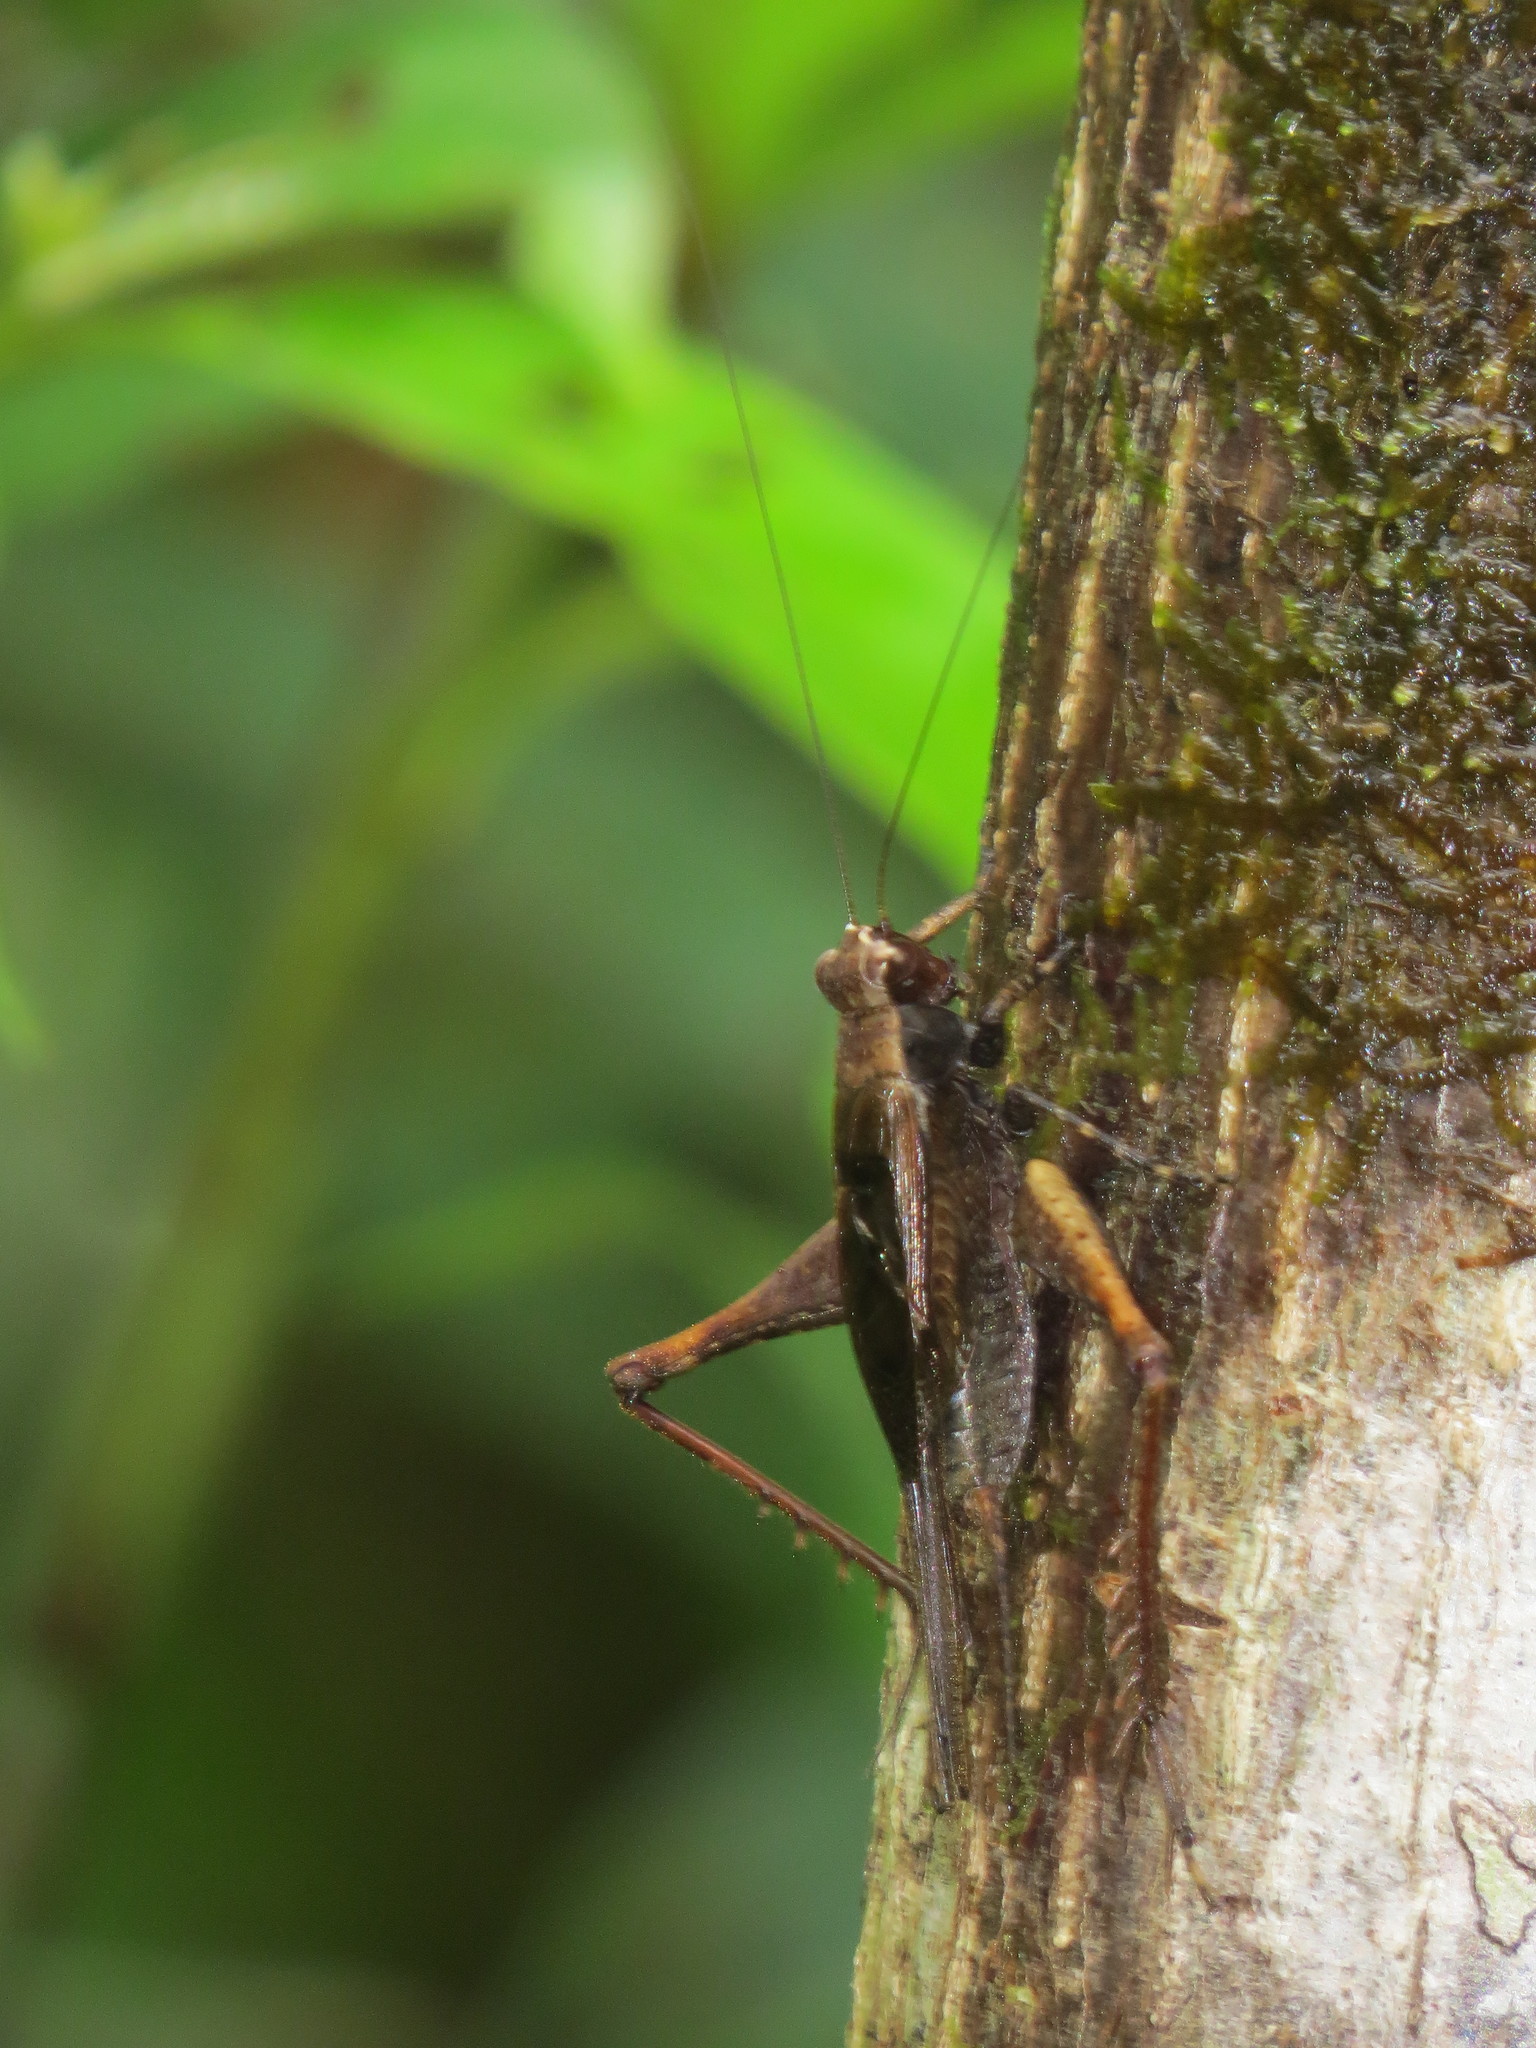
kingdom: Animalia
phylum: Arthropoda
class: Insecta
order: Orthoptera
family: Gryllidae
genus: Eneoptera
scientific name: Eneoptera guyanensis
